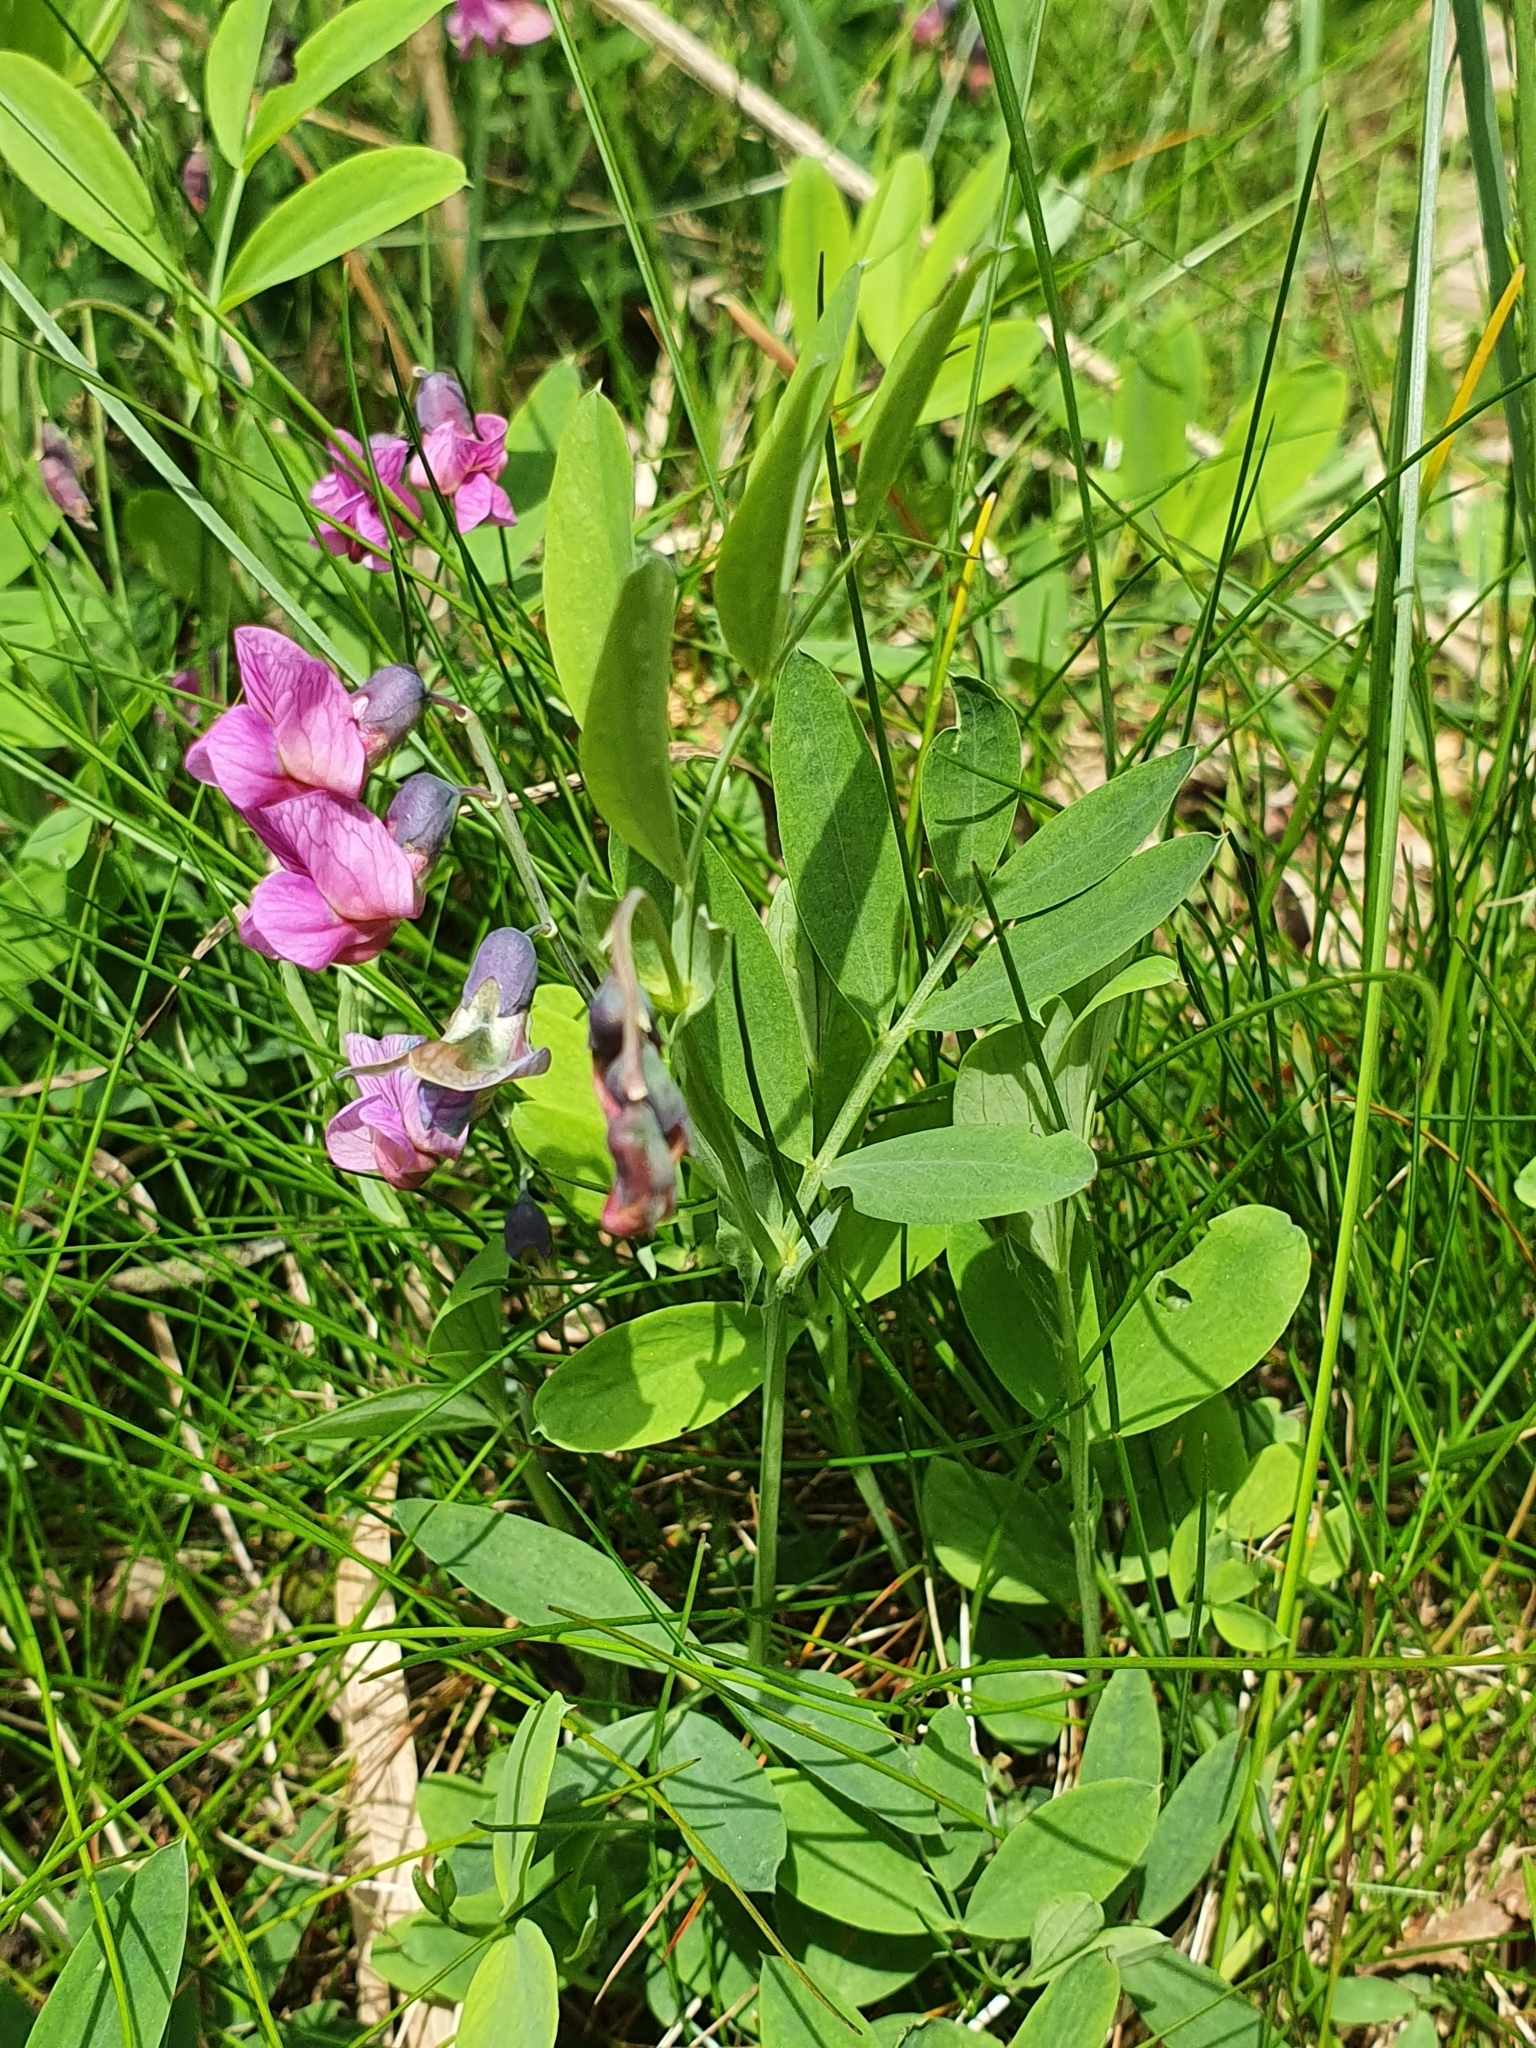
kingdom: Plantae
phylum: Tracheophyta
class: Magnoliopsida
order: Fabales
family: Fabaceae
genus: Lathyrus
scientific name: Lathyrus linifolius
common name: Bitter-vetch
